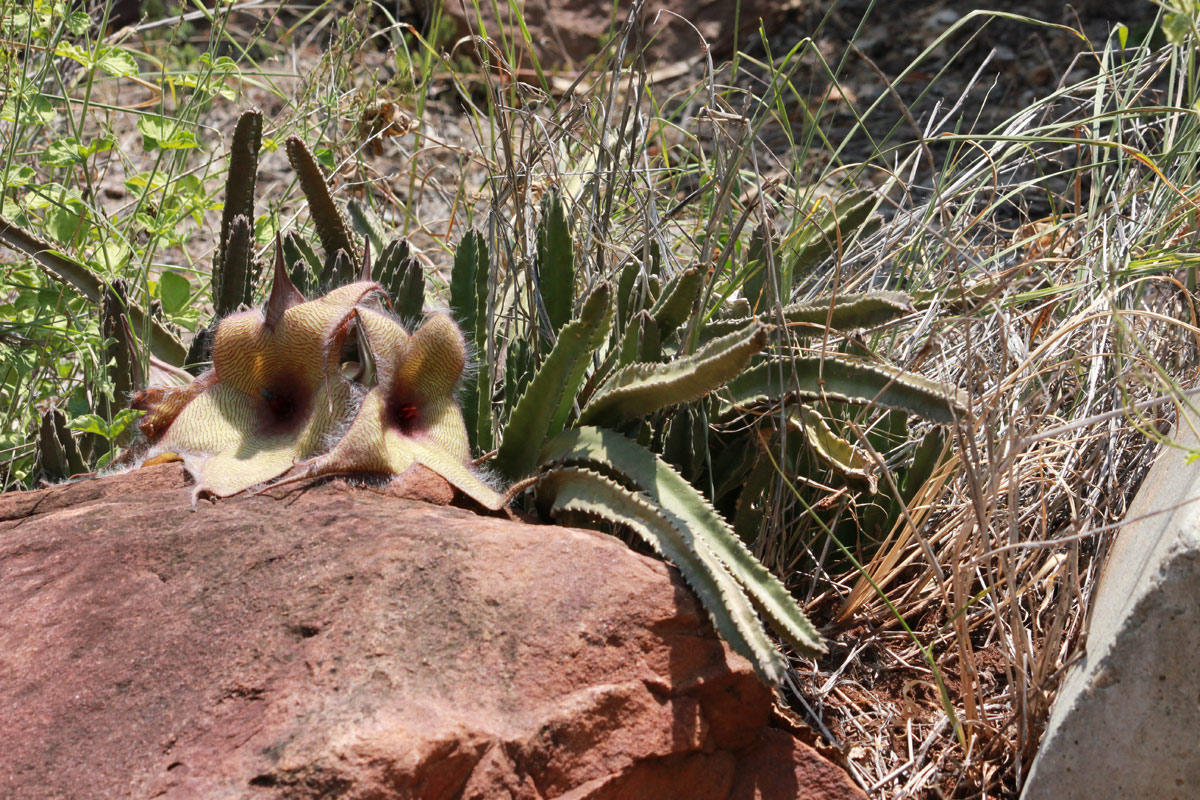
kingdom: Plantae
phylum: Tracheophyta
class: Magnoliopsida
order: Gentianales
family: Apocynaceae
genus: Ceropegia
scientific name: Ceropegia gigantea
